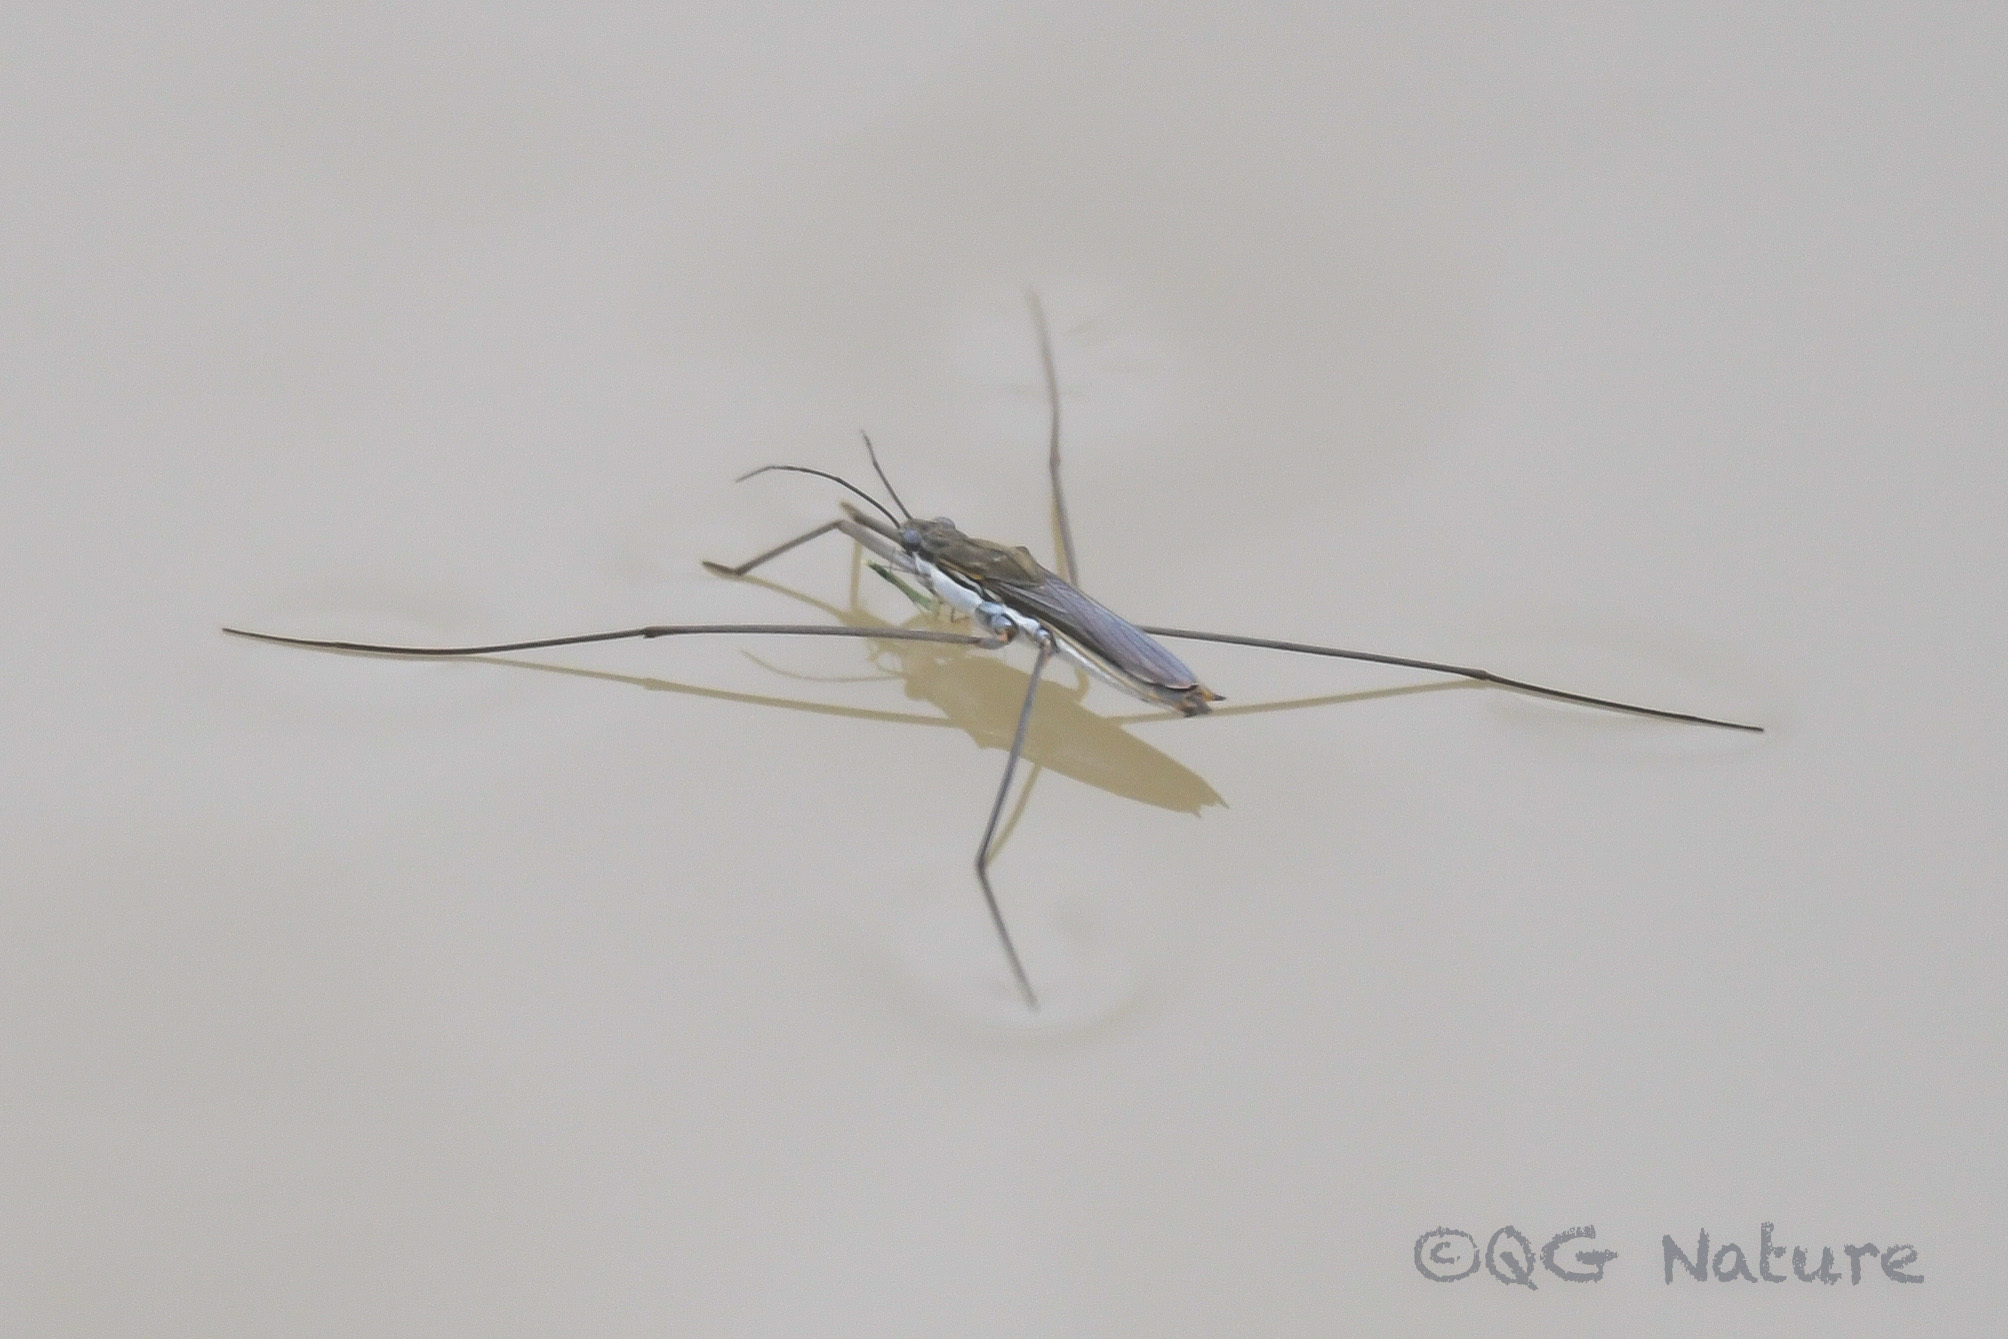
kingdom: Animalia
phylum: Arthropoda
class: Insecta
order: Hemiptera
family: Gerridae
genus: Aquarius
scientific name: Aquarius paludum
